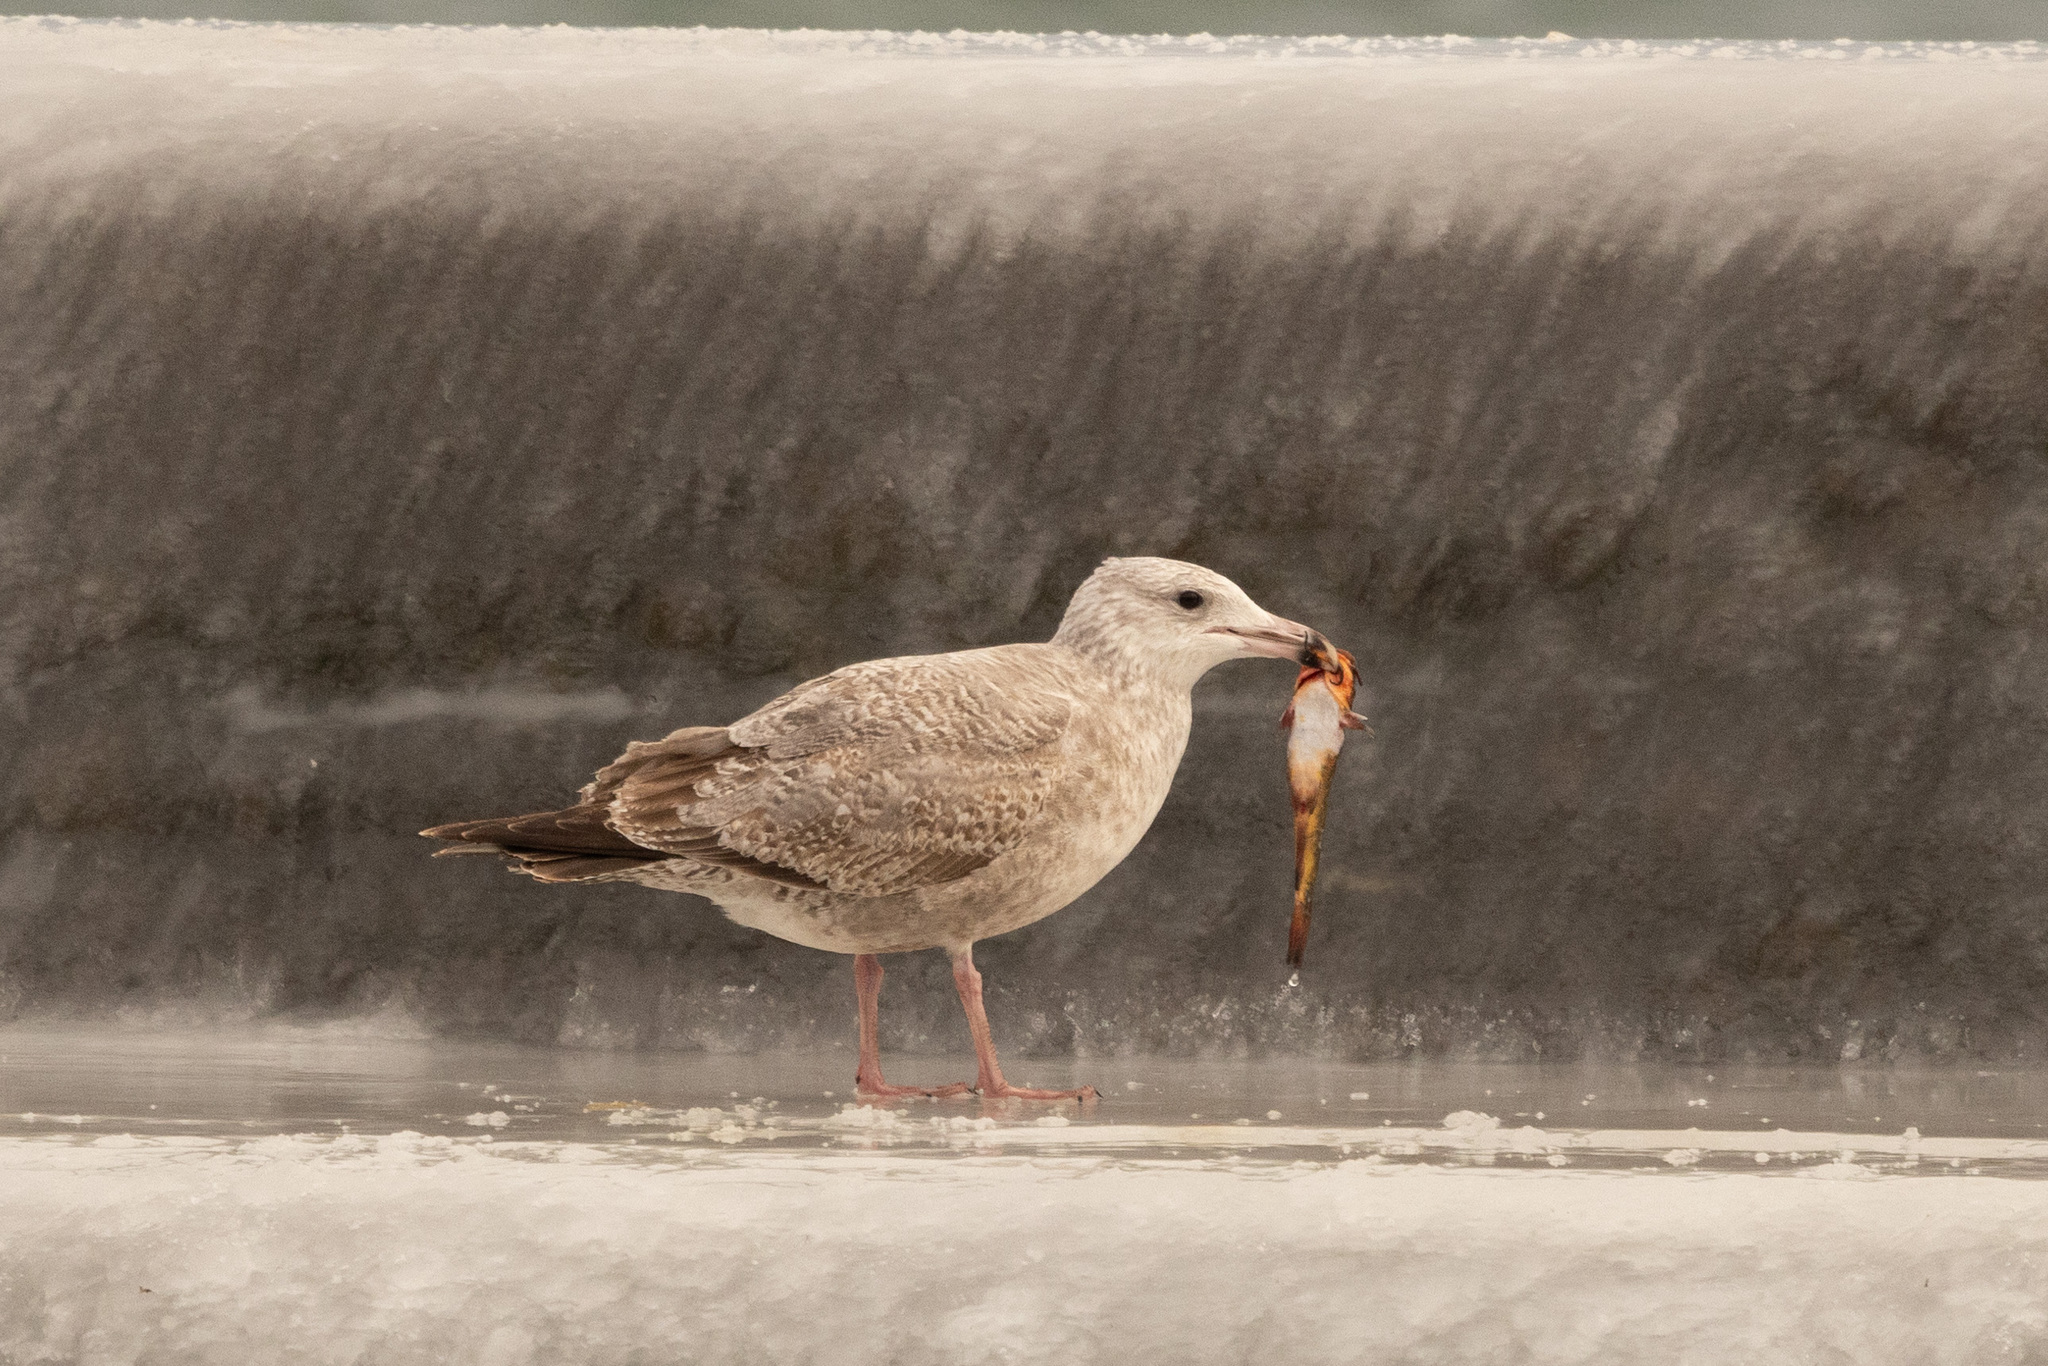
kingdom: Animalia
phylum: Chordata
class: Aves
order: Charadriiformes
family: Laridae
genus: Larus
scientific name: Larus argentatus
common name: Herring gull
